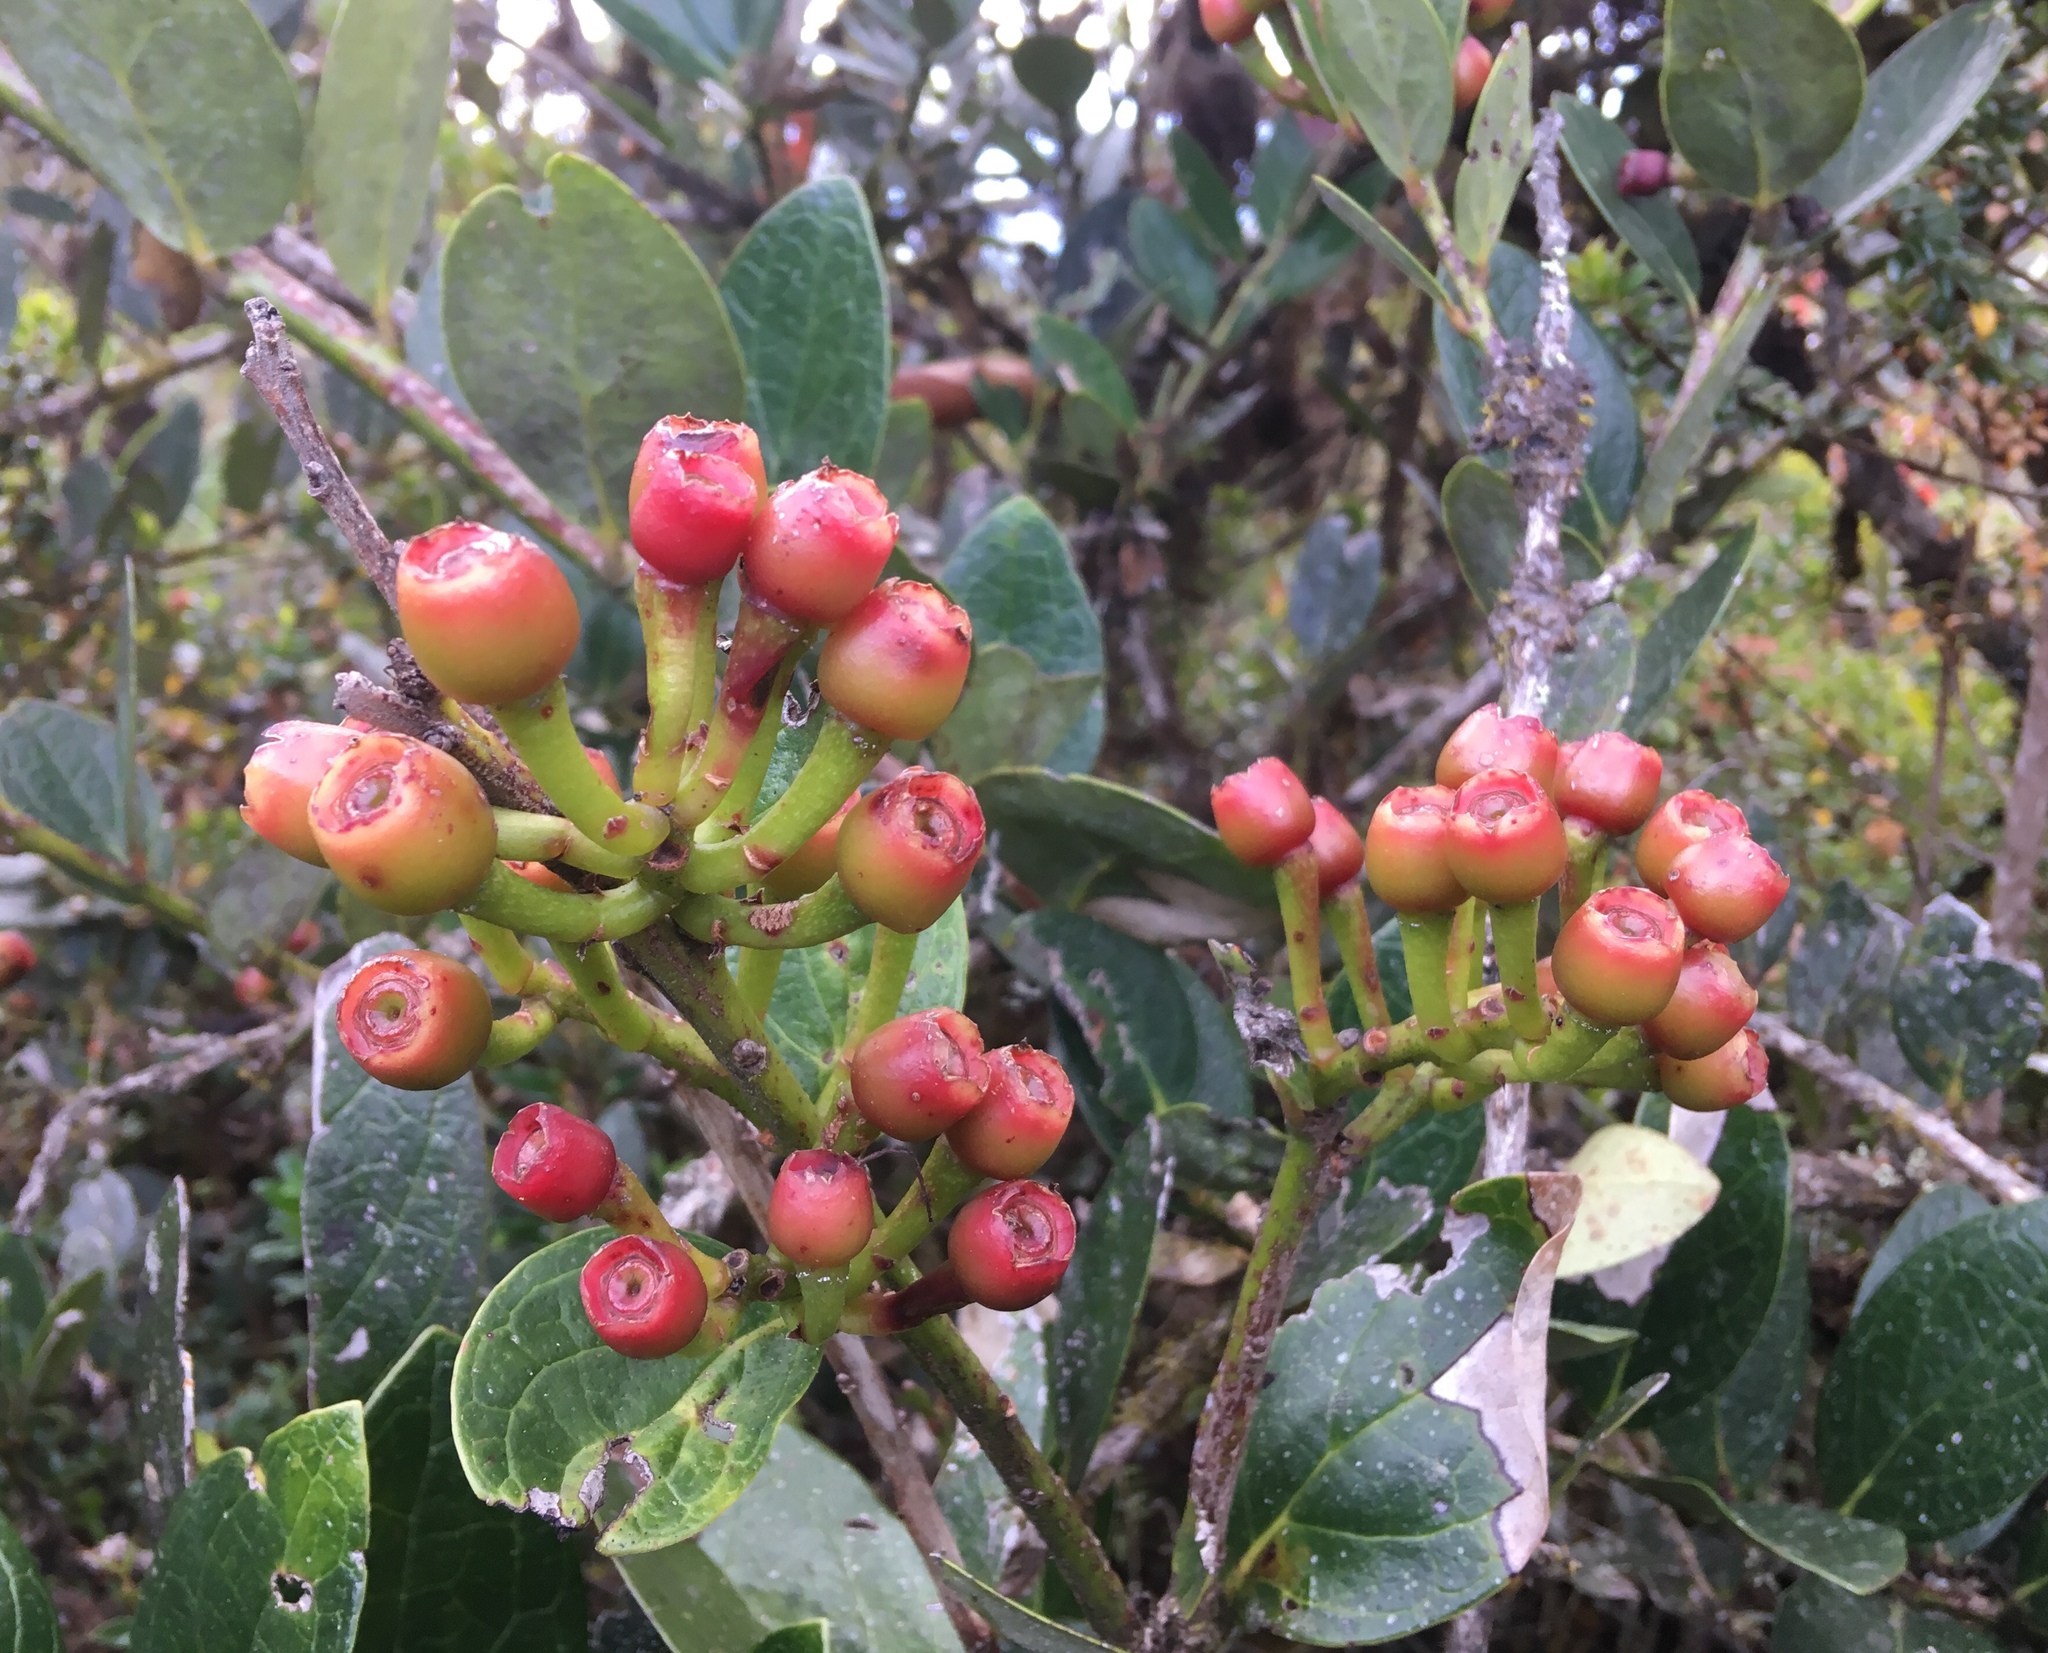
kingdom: Plantae
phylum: Tracheophyta
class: Magnoliopsida
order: Ericales
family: Ericaceae
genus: Macleania
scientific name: Macleania rupestris
